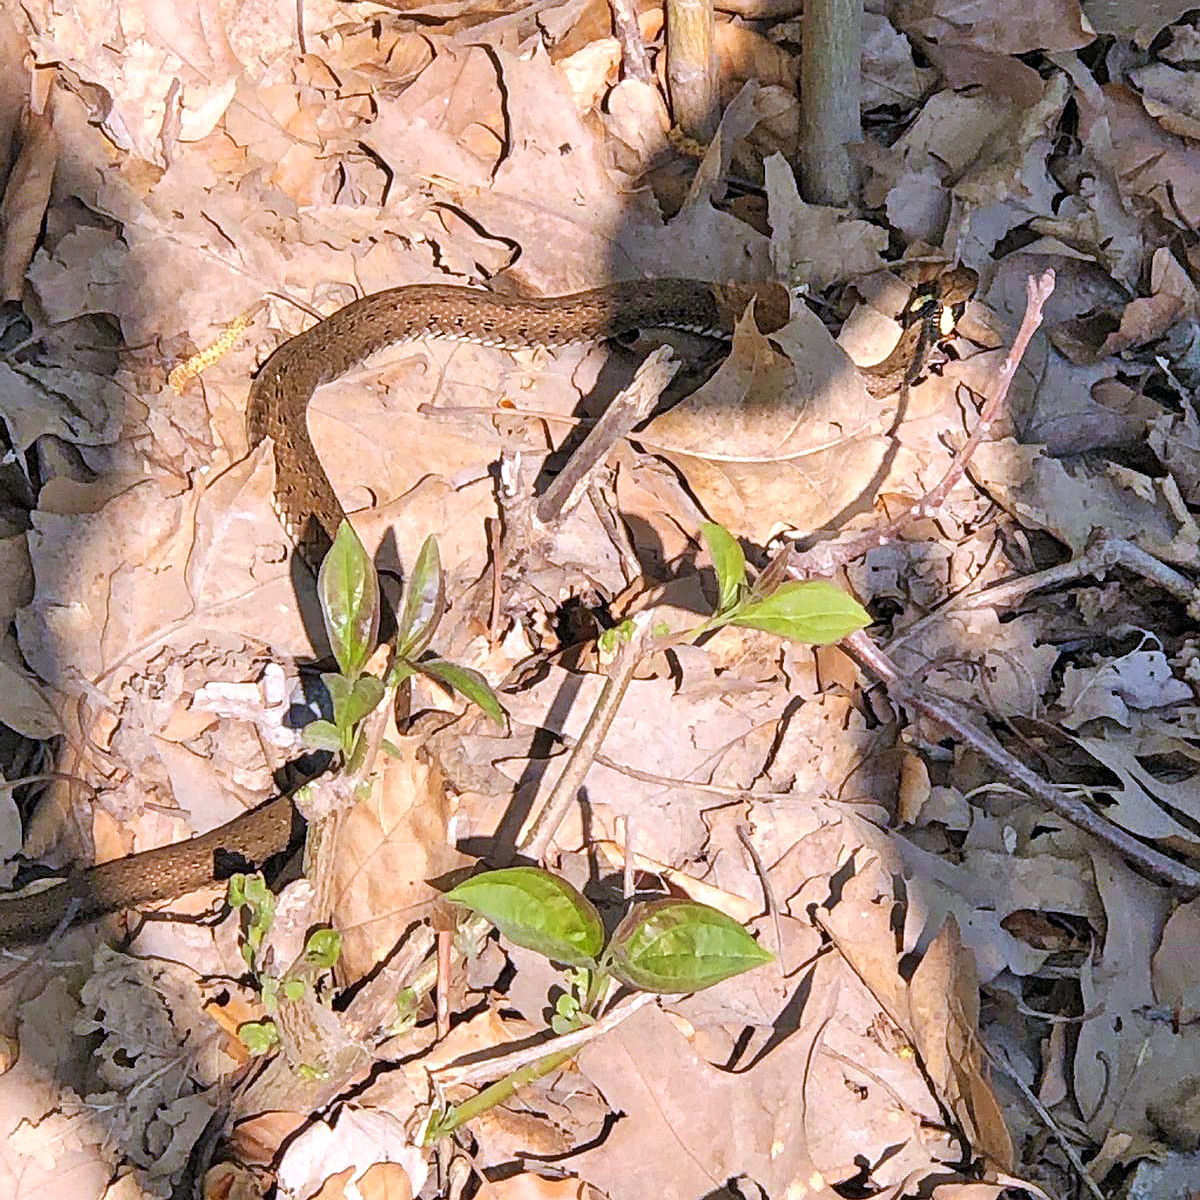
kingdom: Animalia
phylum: Chordata
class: Squamata
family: Colubridae
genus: Natrix
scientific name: Natrix natrix
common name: Grass snake
